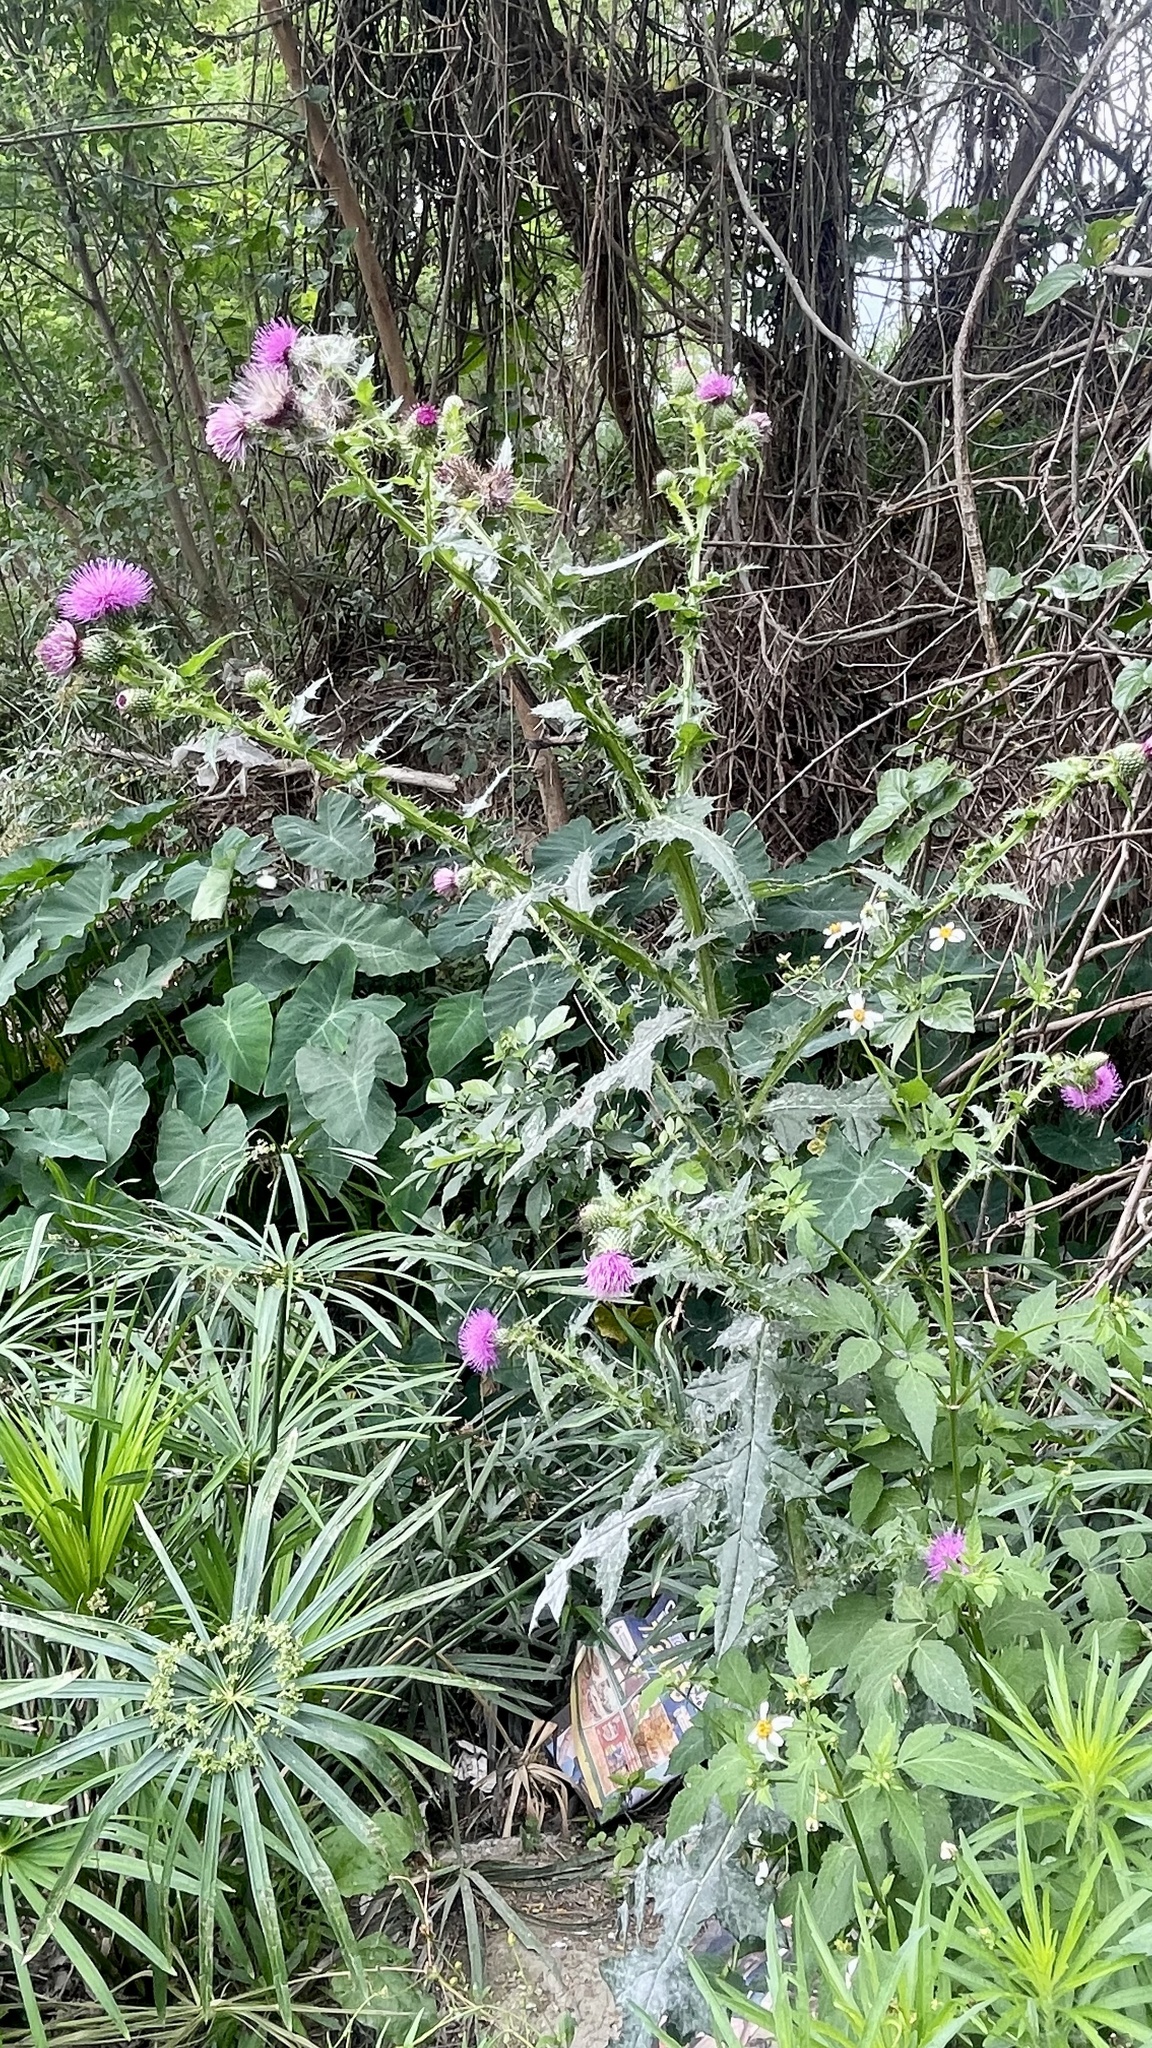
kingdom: Plantae
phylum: Tracheophyta
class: Magnoliopsida
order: Asterales
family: Asteraceae
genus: Cirsium
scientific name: Cirsium mexicanum
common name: Mexican thistle
